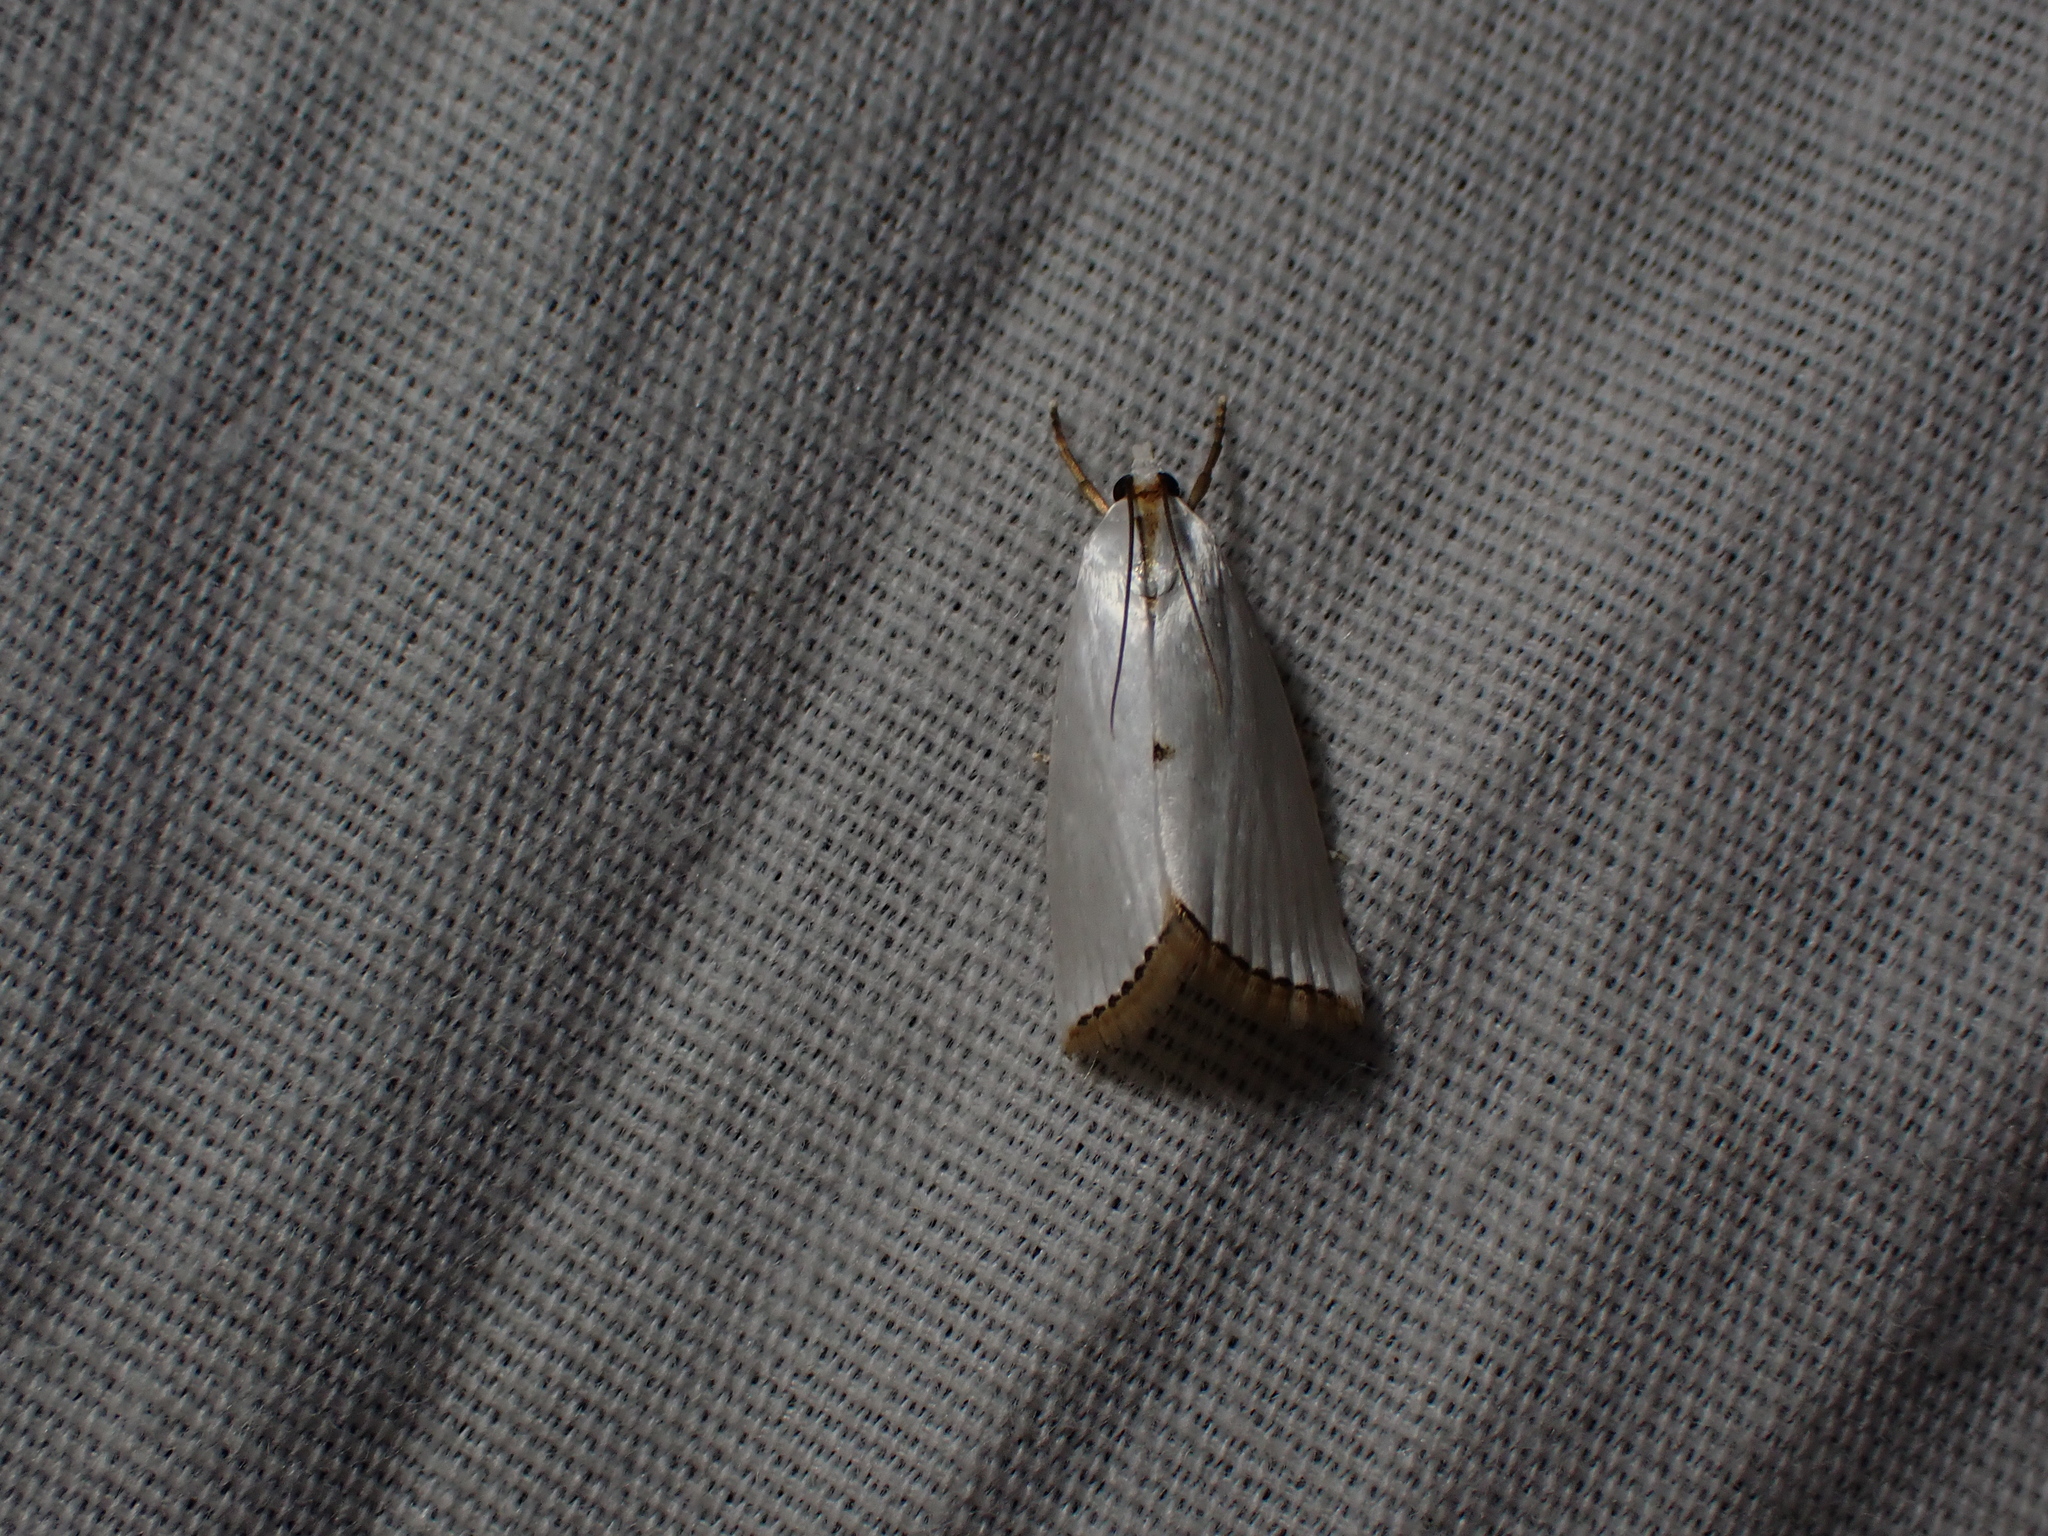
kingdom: Animalia
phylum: Arthropoda
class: Insecta
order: Lepidoptera
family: Crambidae
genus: Argyria
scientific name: Argyria nivalis
